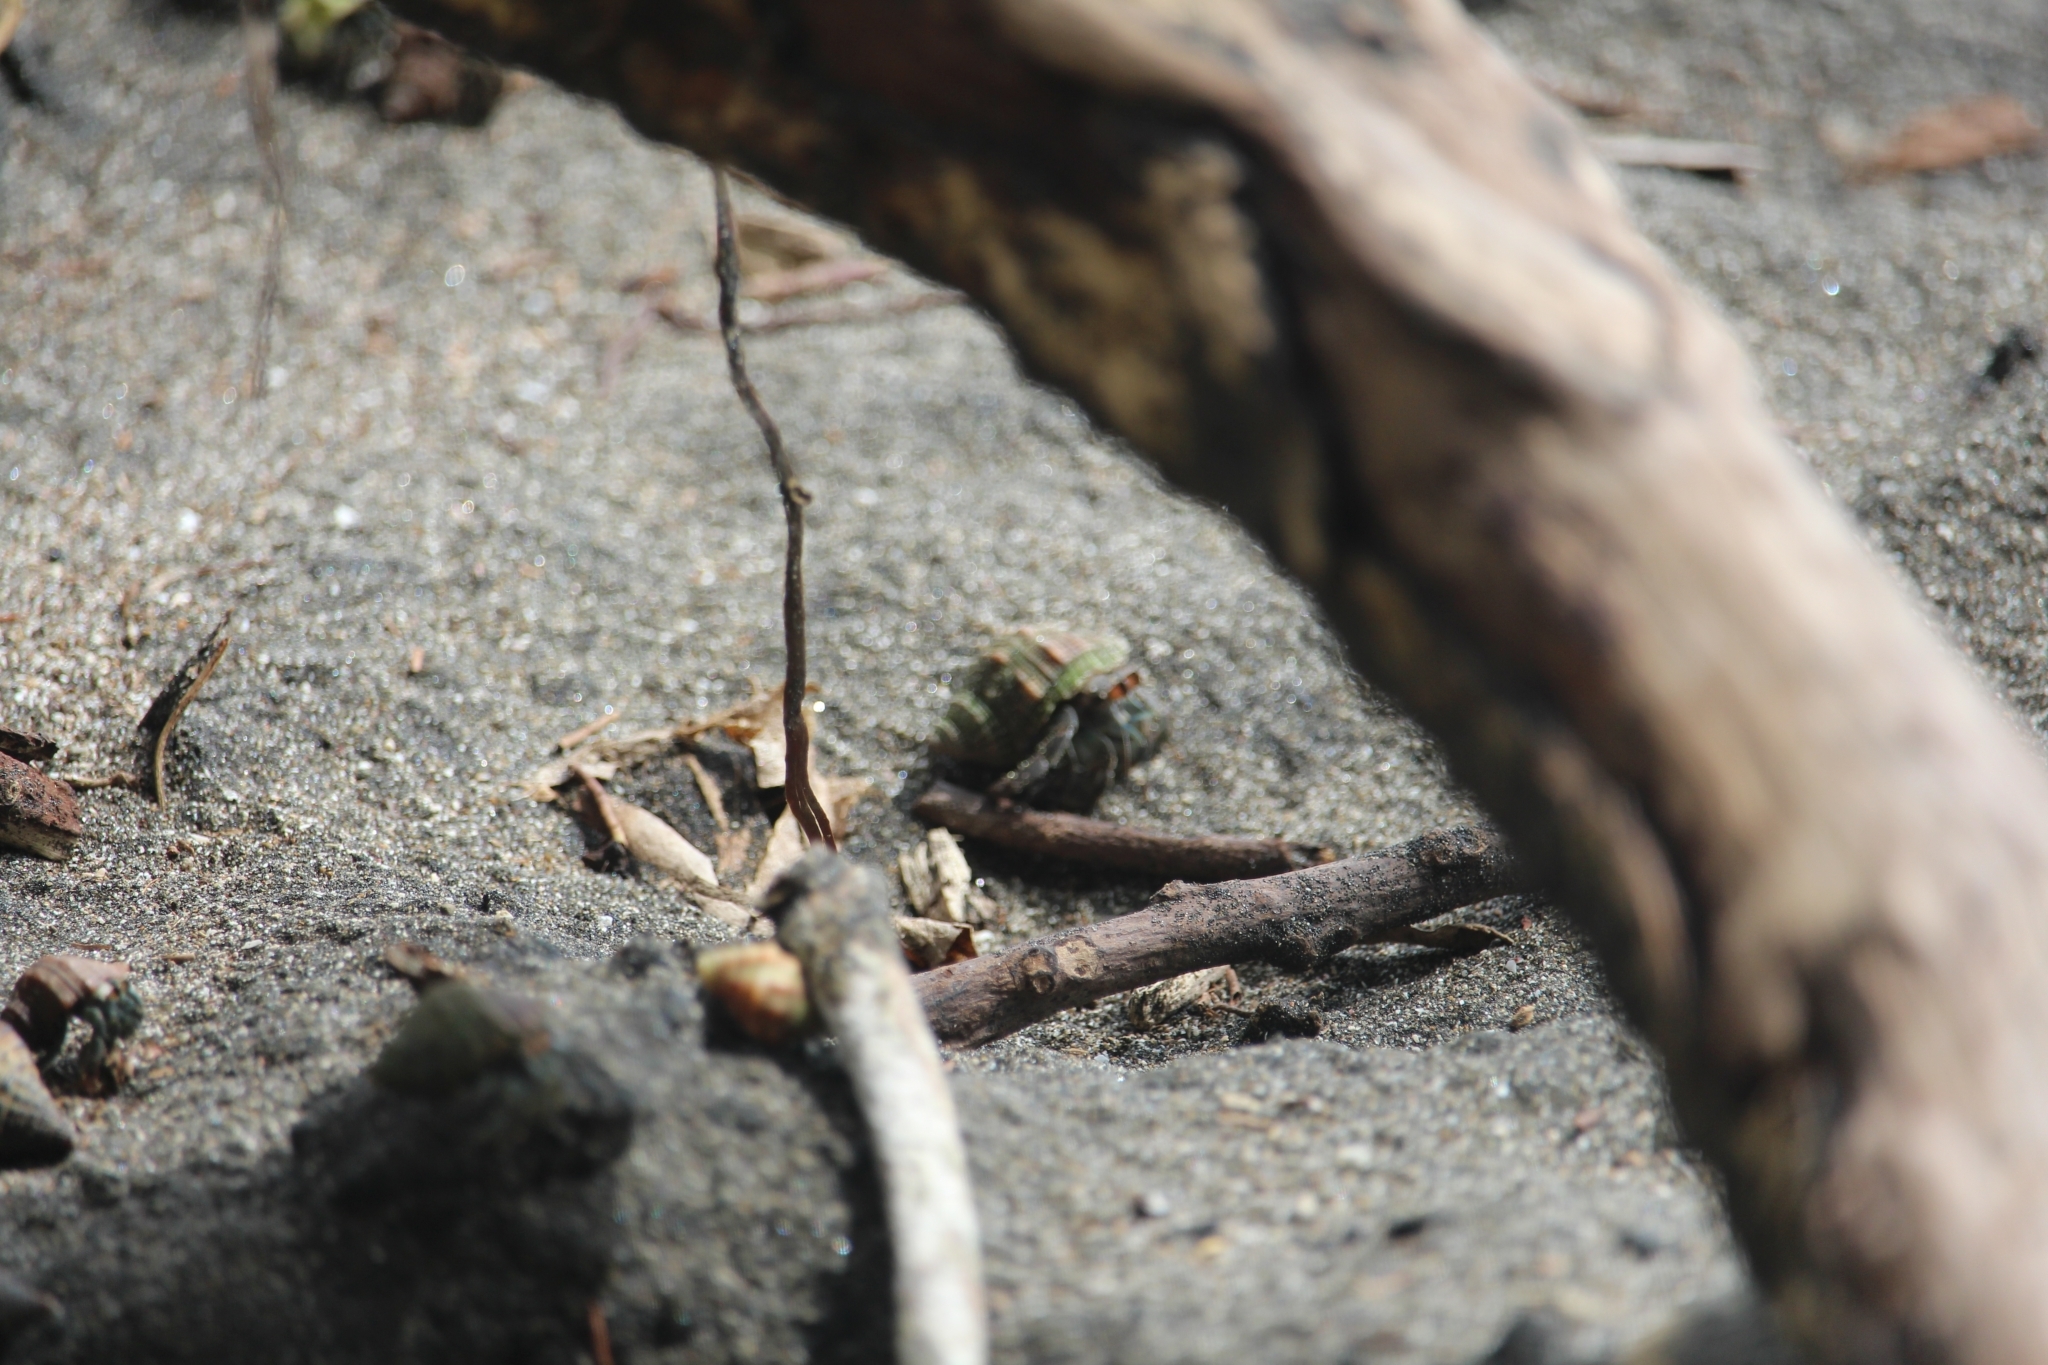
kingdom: Animalia
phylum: Arthropoda
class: Malacostraca
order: Decapoda
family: Coenobitidae
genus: Coenobita
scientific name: Coenobita compressus
